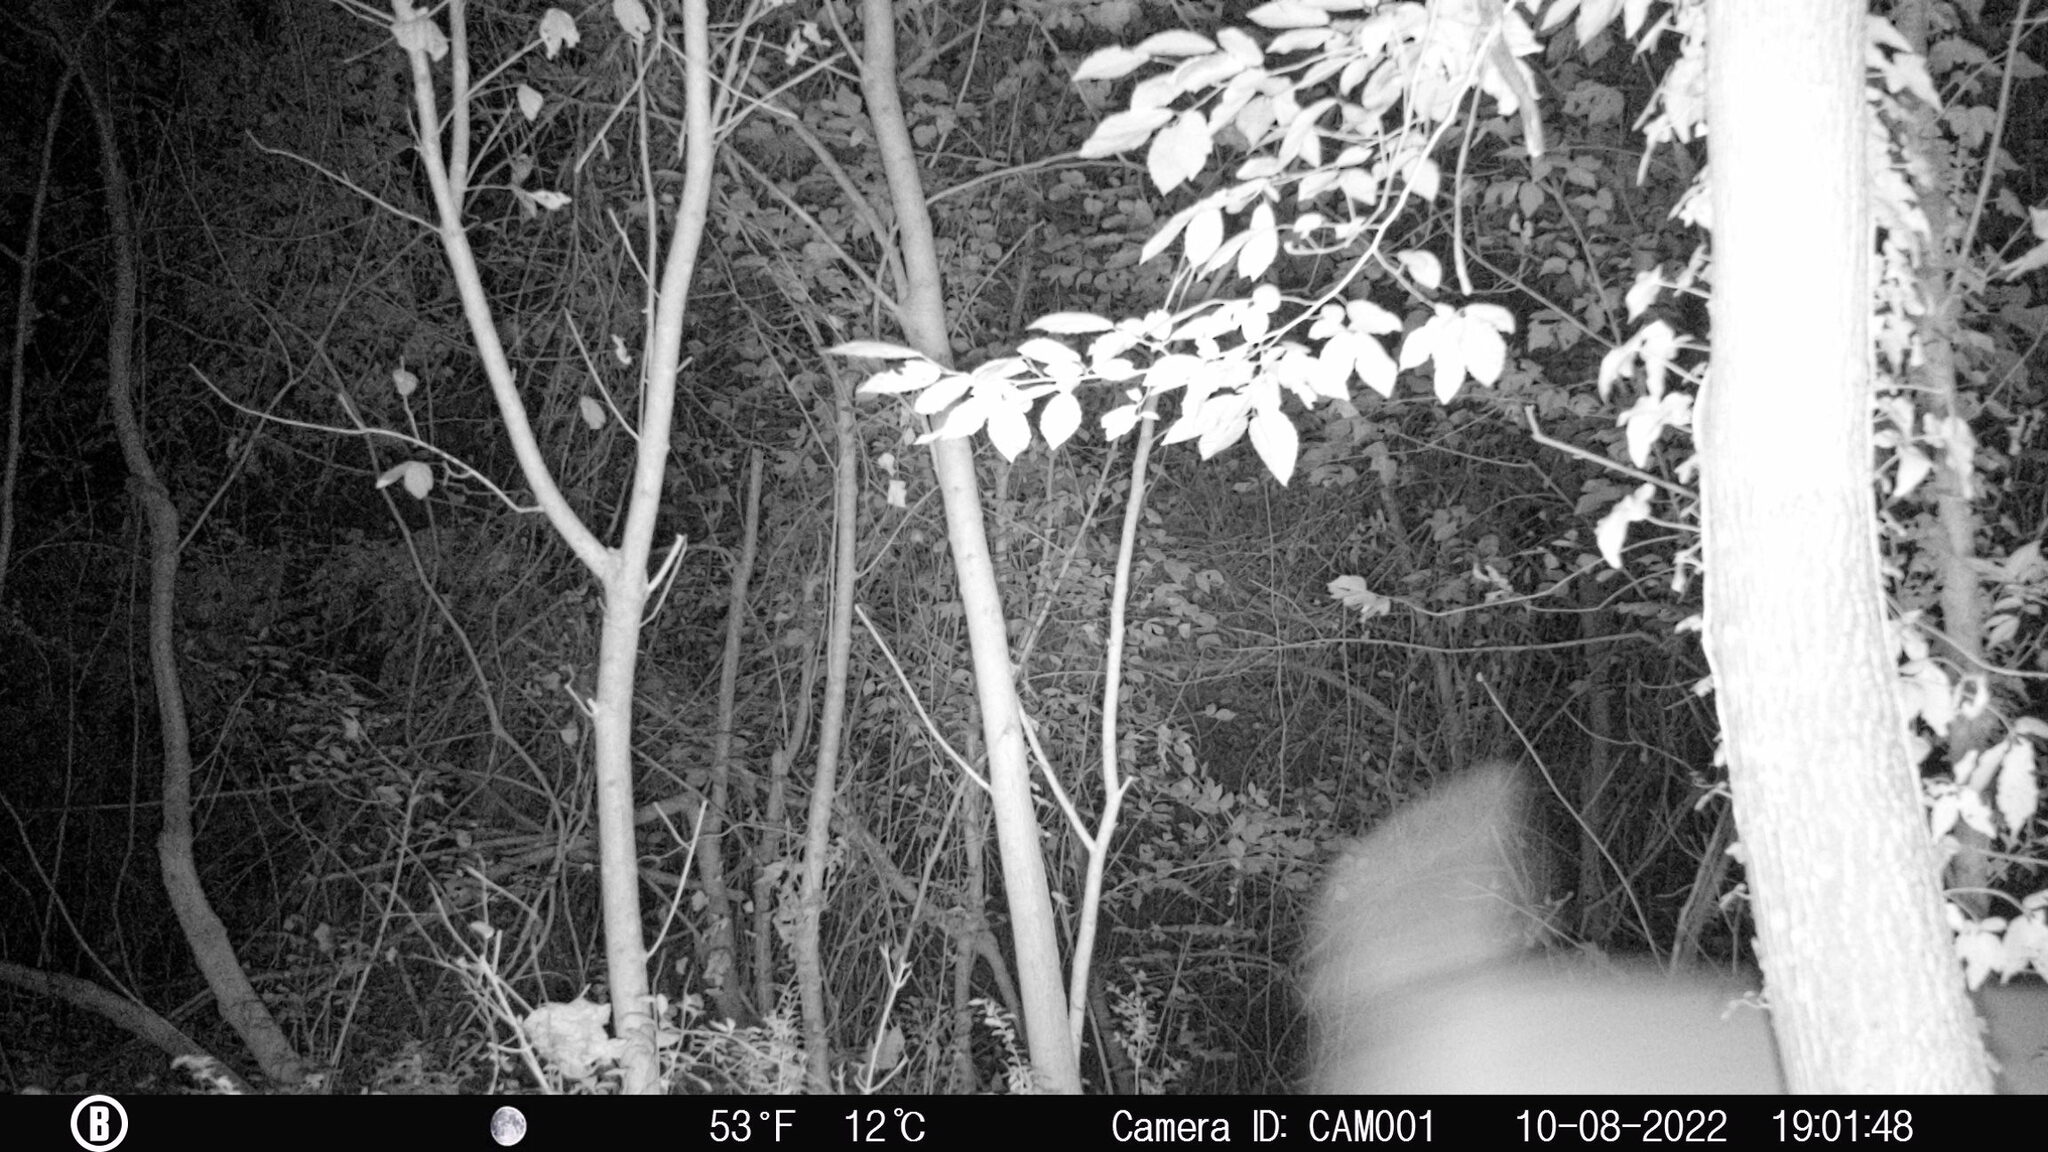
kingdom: Animalia
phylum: Chordata
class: Mammalia
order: Artiodactyla
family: Cervidae
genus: Odocoileus
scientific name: Odocoileus virginianus
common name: White-tailed deer
